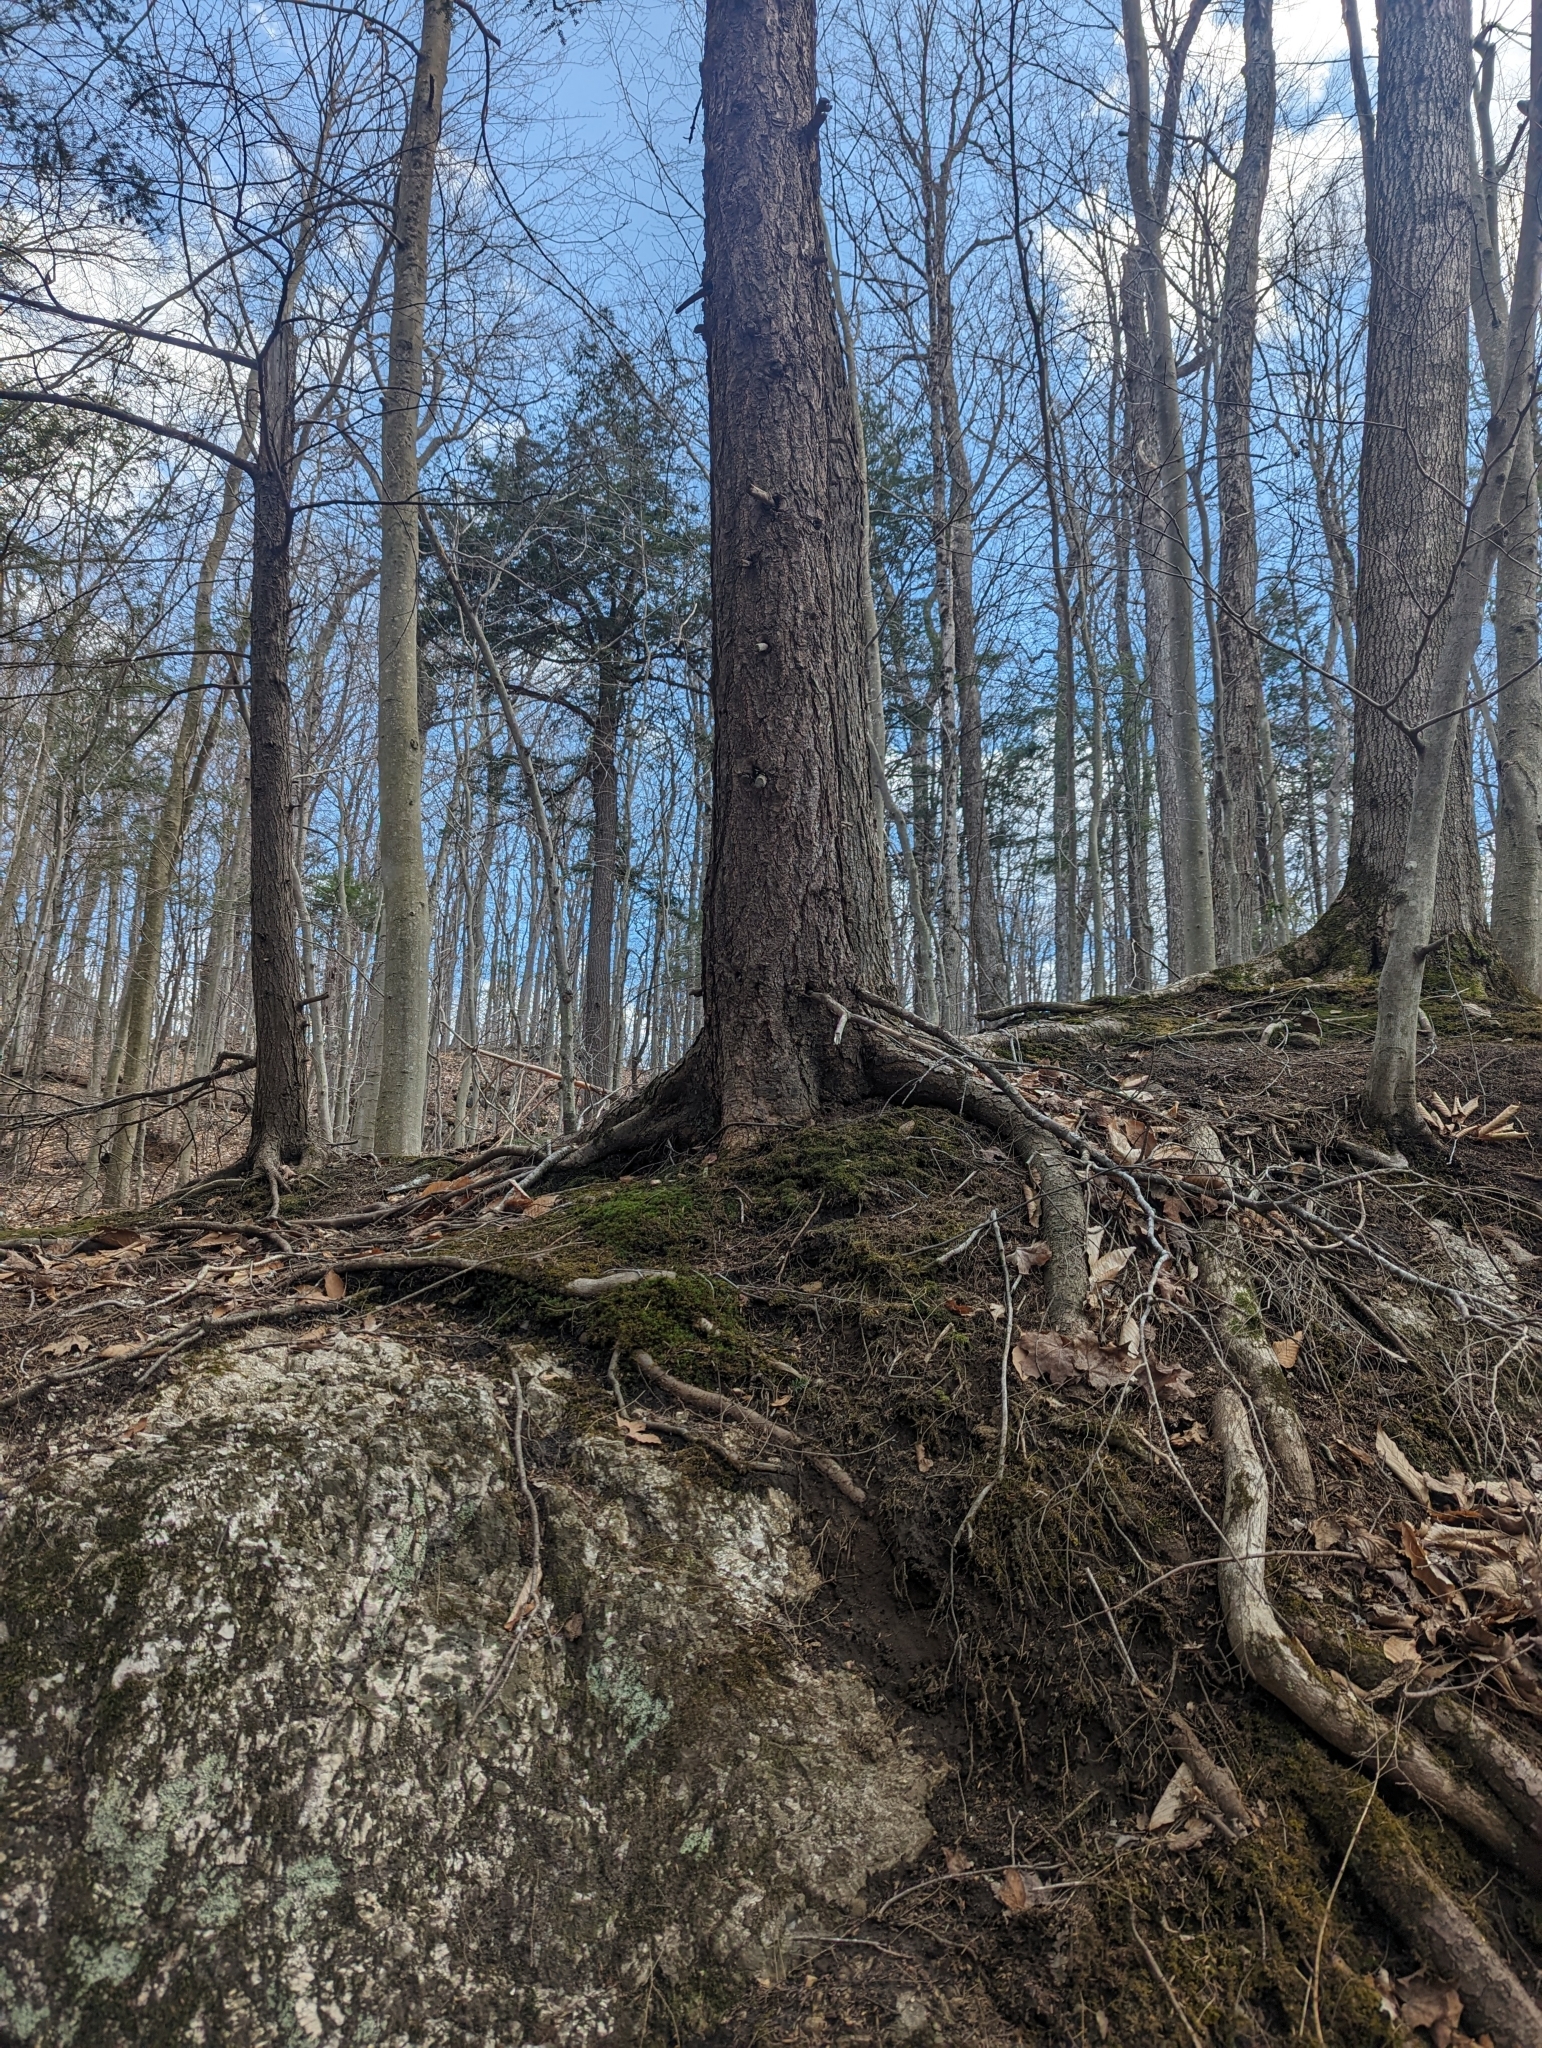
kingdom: Plantae
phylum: Tracheophyta
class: Pinopsida
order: Pinales
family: Pinaceae
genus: Tsuga
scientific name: Tsuga canadensis
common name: Eastern hemlock
